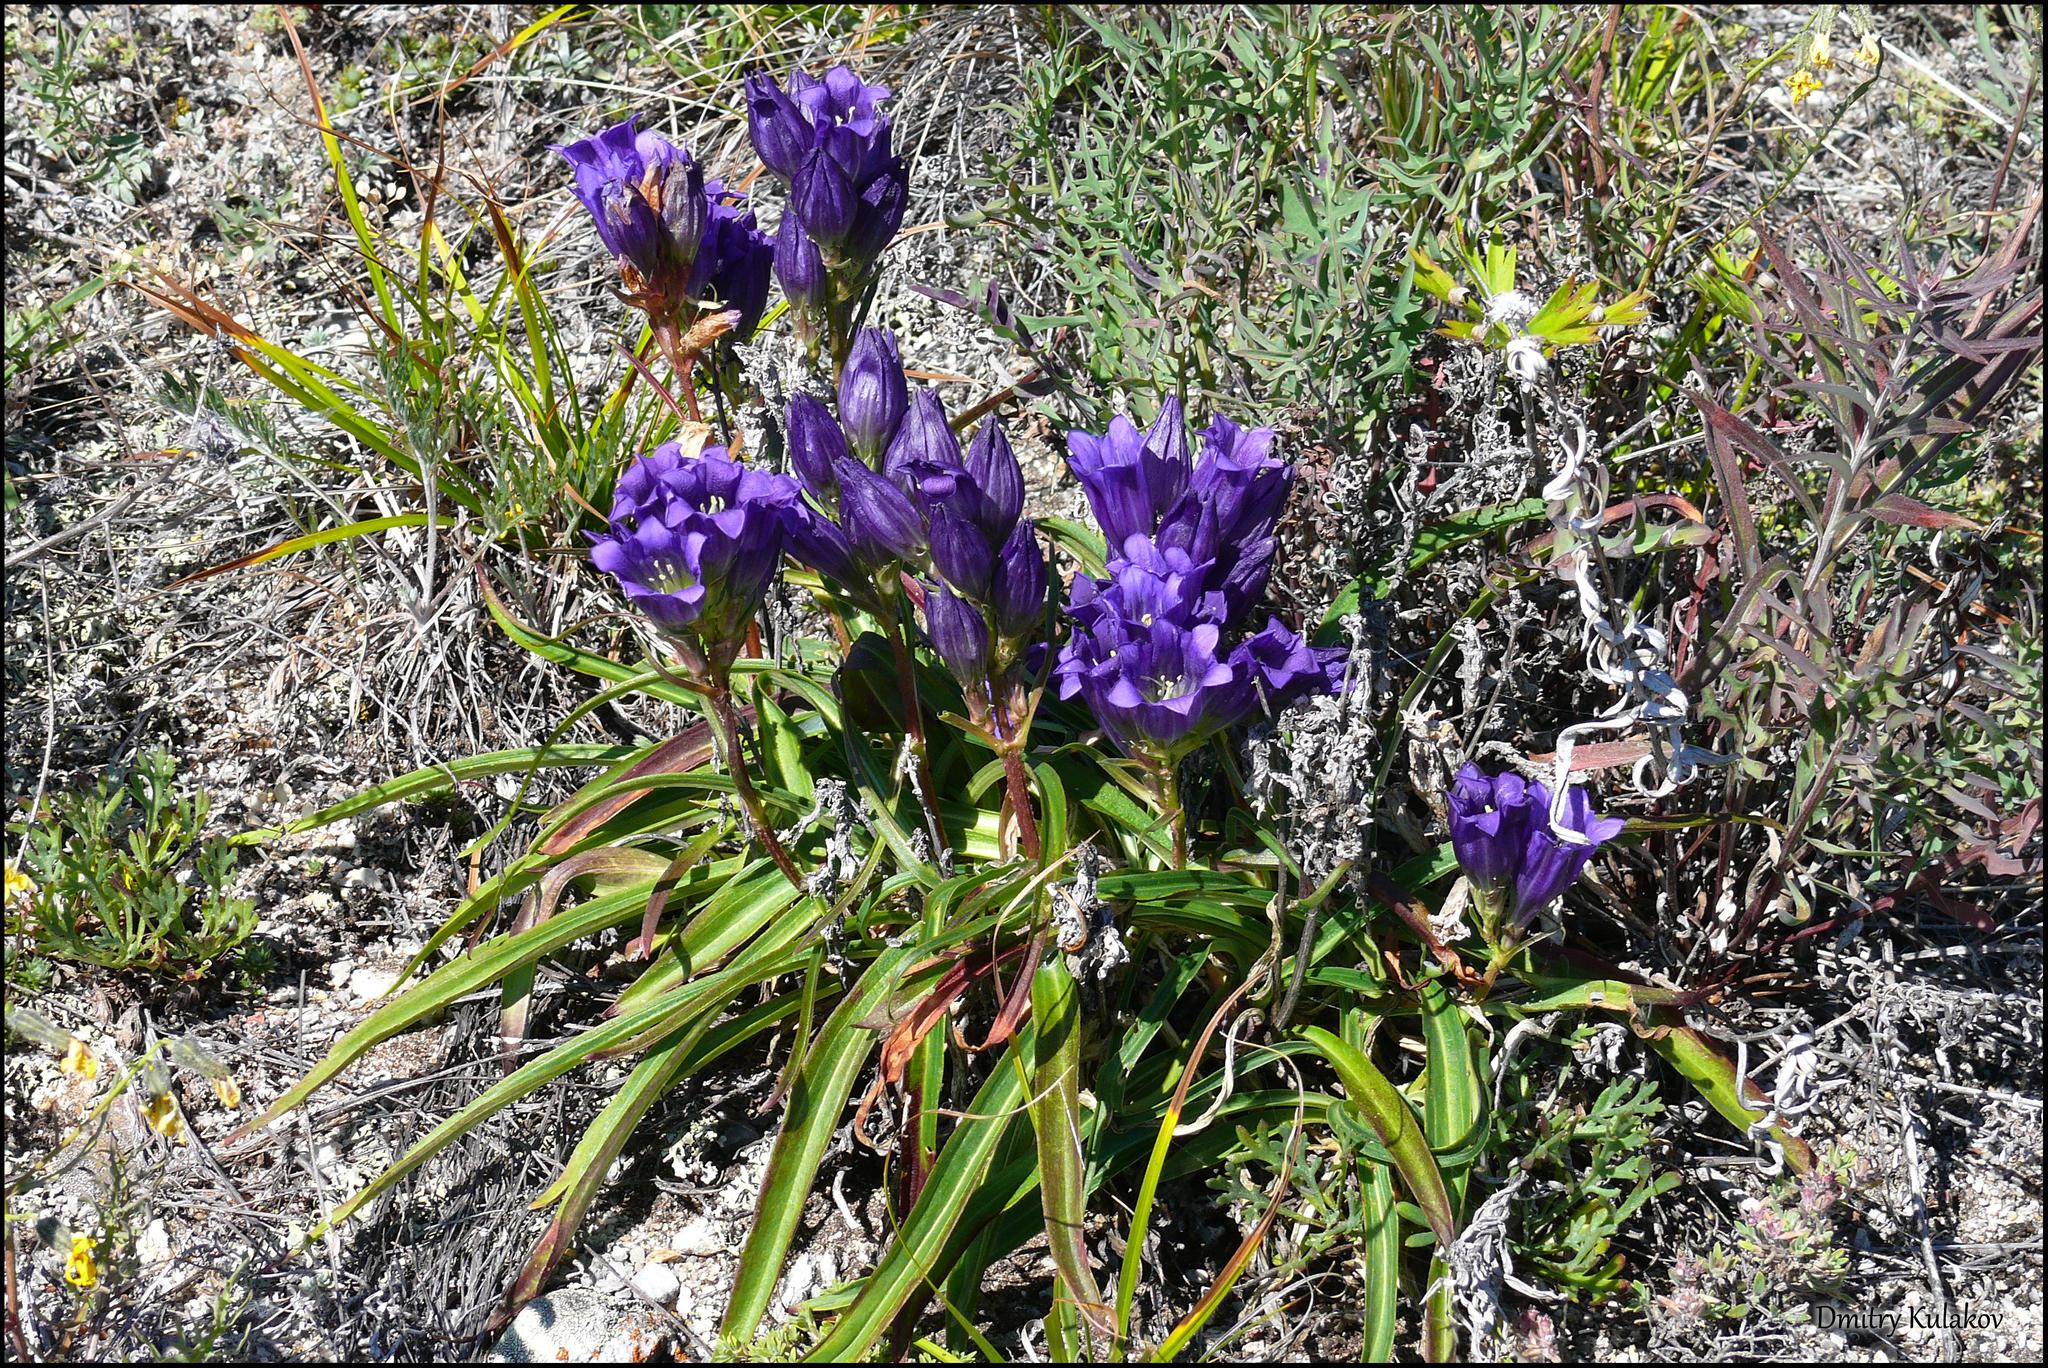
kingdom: Plantae
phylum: Tracheophyta
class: Magnoliopsida
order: Gentianales
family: Gentianaceae
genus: Gentiana
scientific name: Gentiana decumbens
